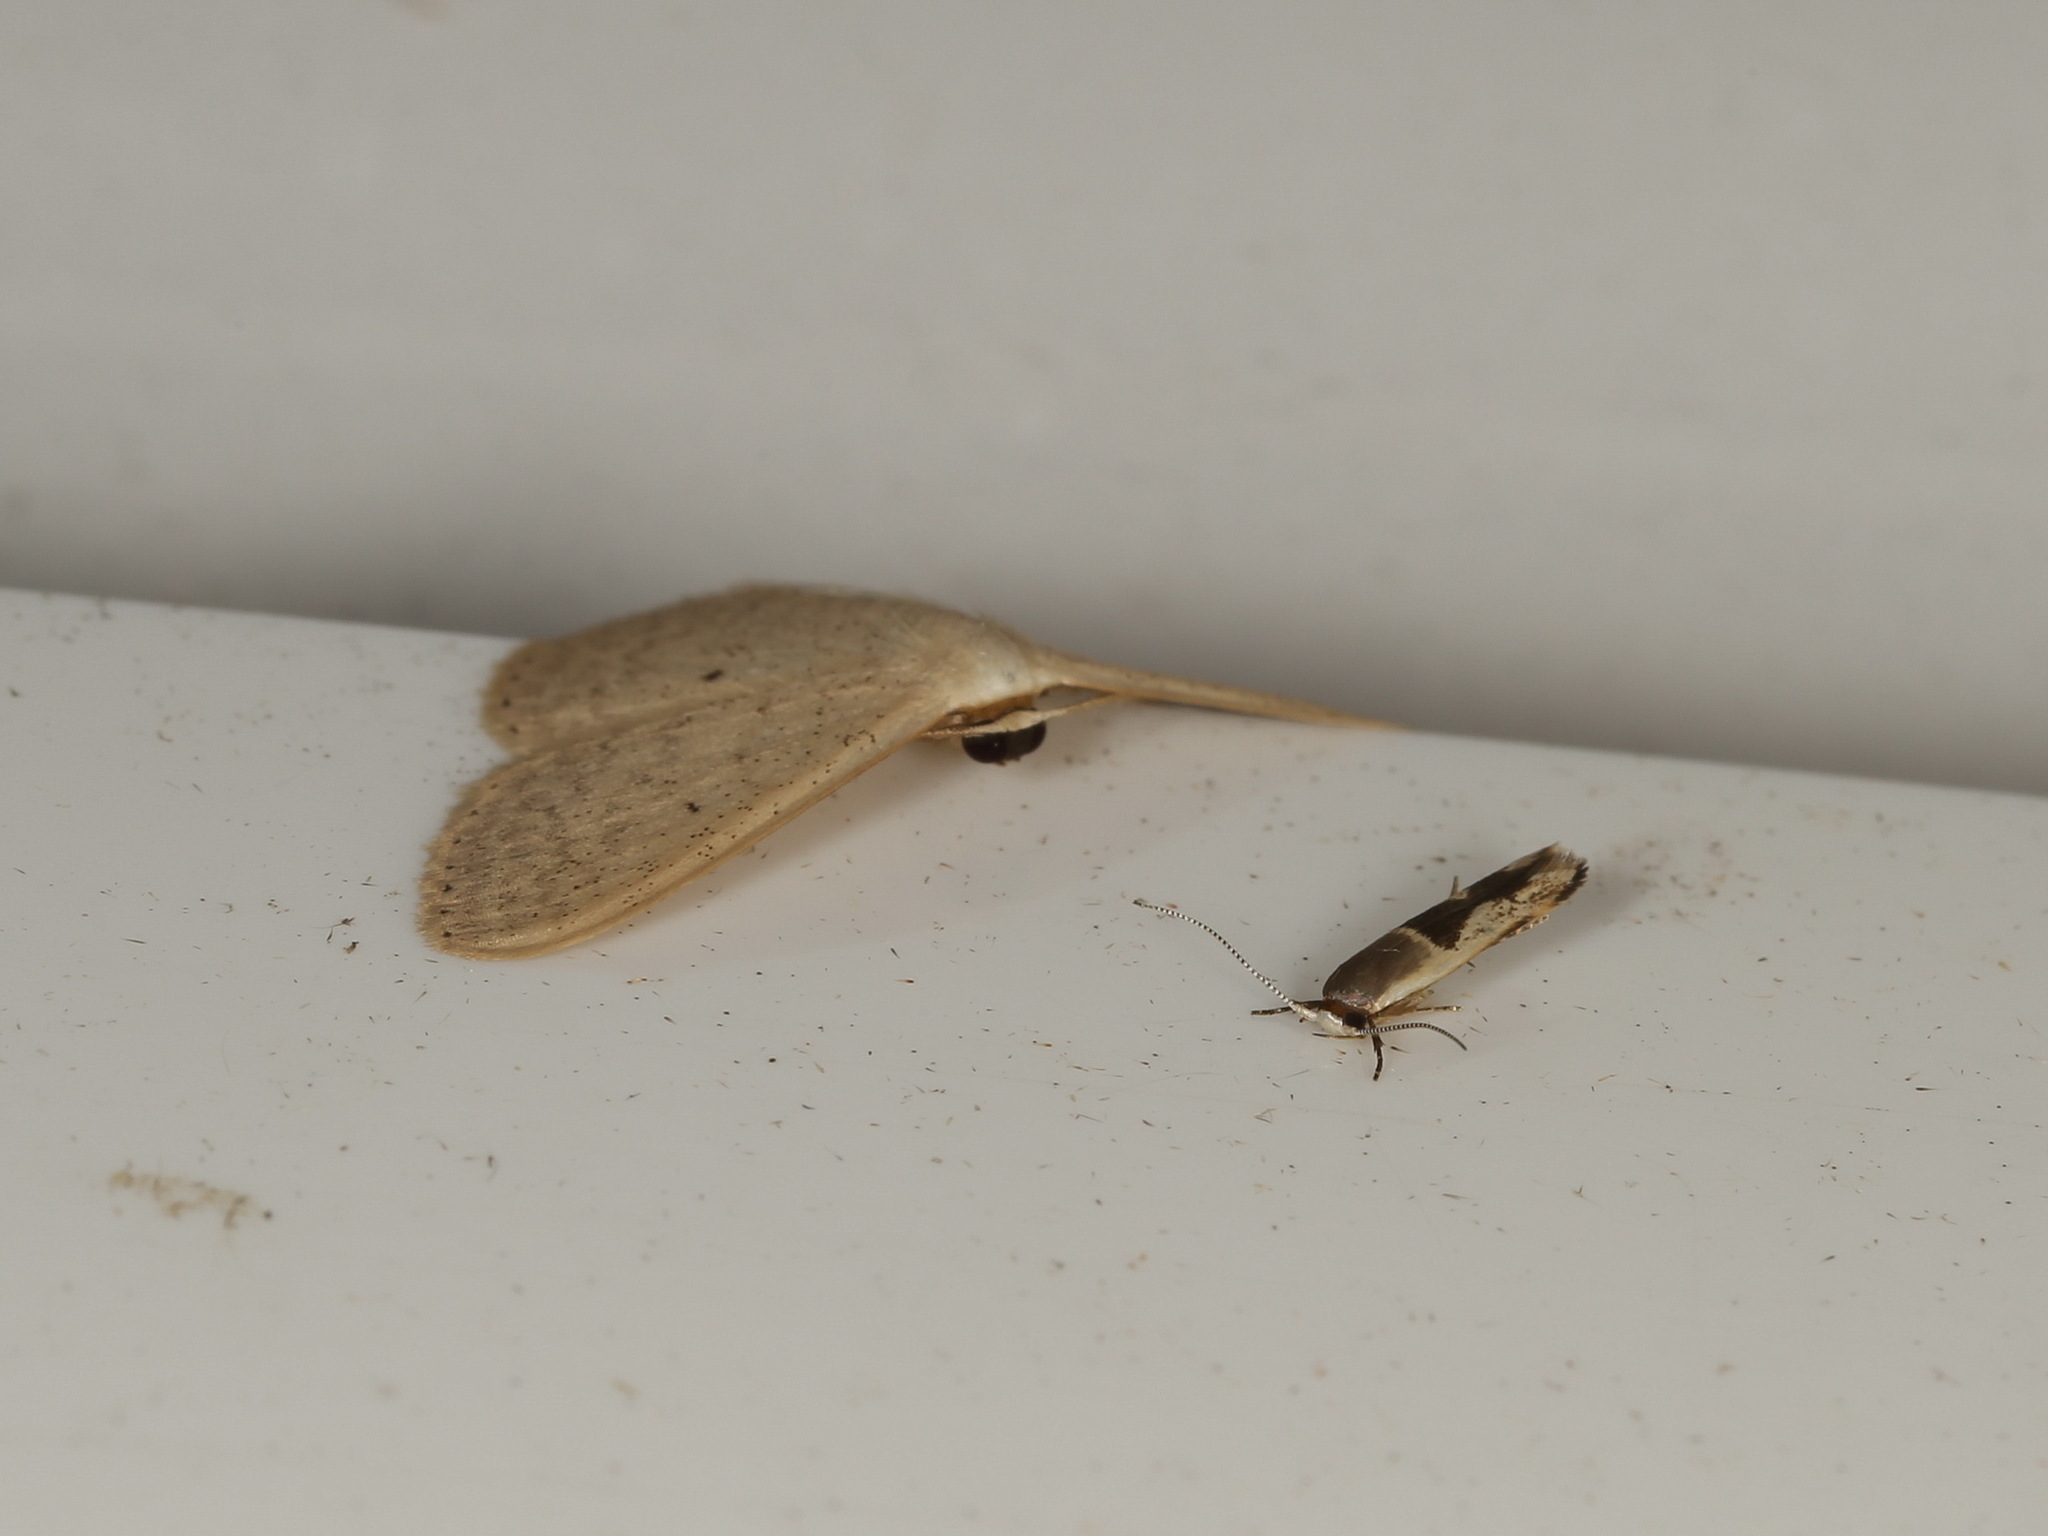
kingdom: Animalia
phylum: Arthropoda
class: Insecta
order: Lepidoptera
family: Stathmopodidae
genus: Stathmopoda
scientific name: Stathmopoda megathyma
